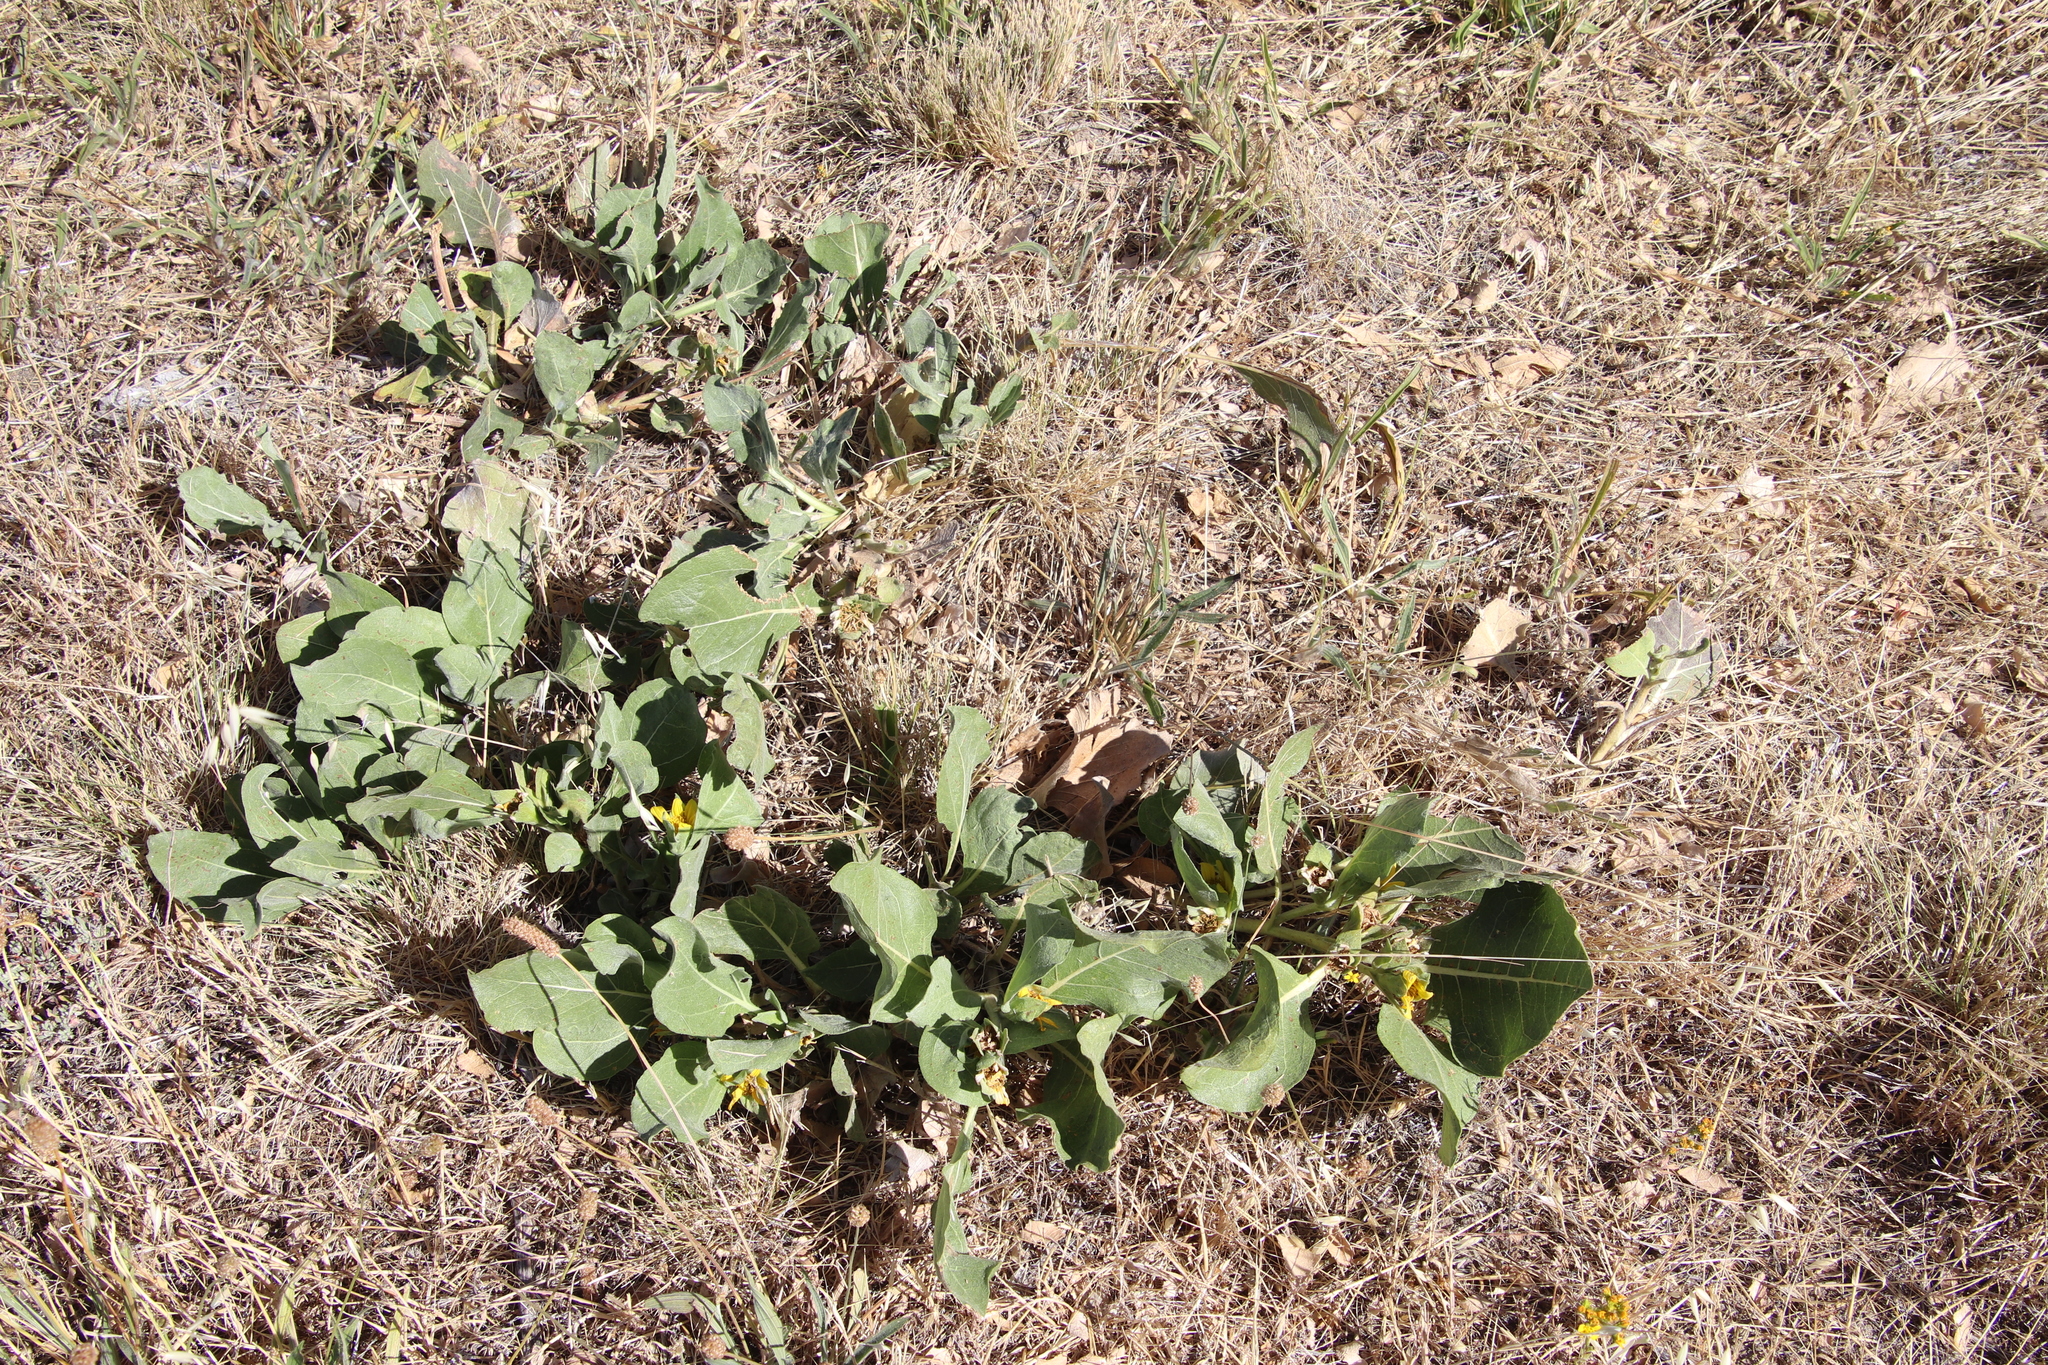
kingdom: Plantae
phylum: Tracheophyta
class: Magnoliopsida
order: Asterales
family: Asteraceae
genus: Agnorhiza
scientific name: Agnorhiza ovata
